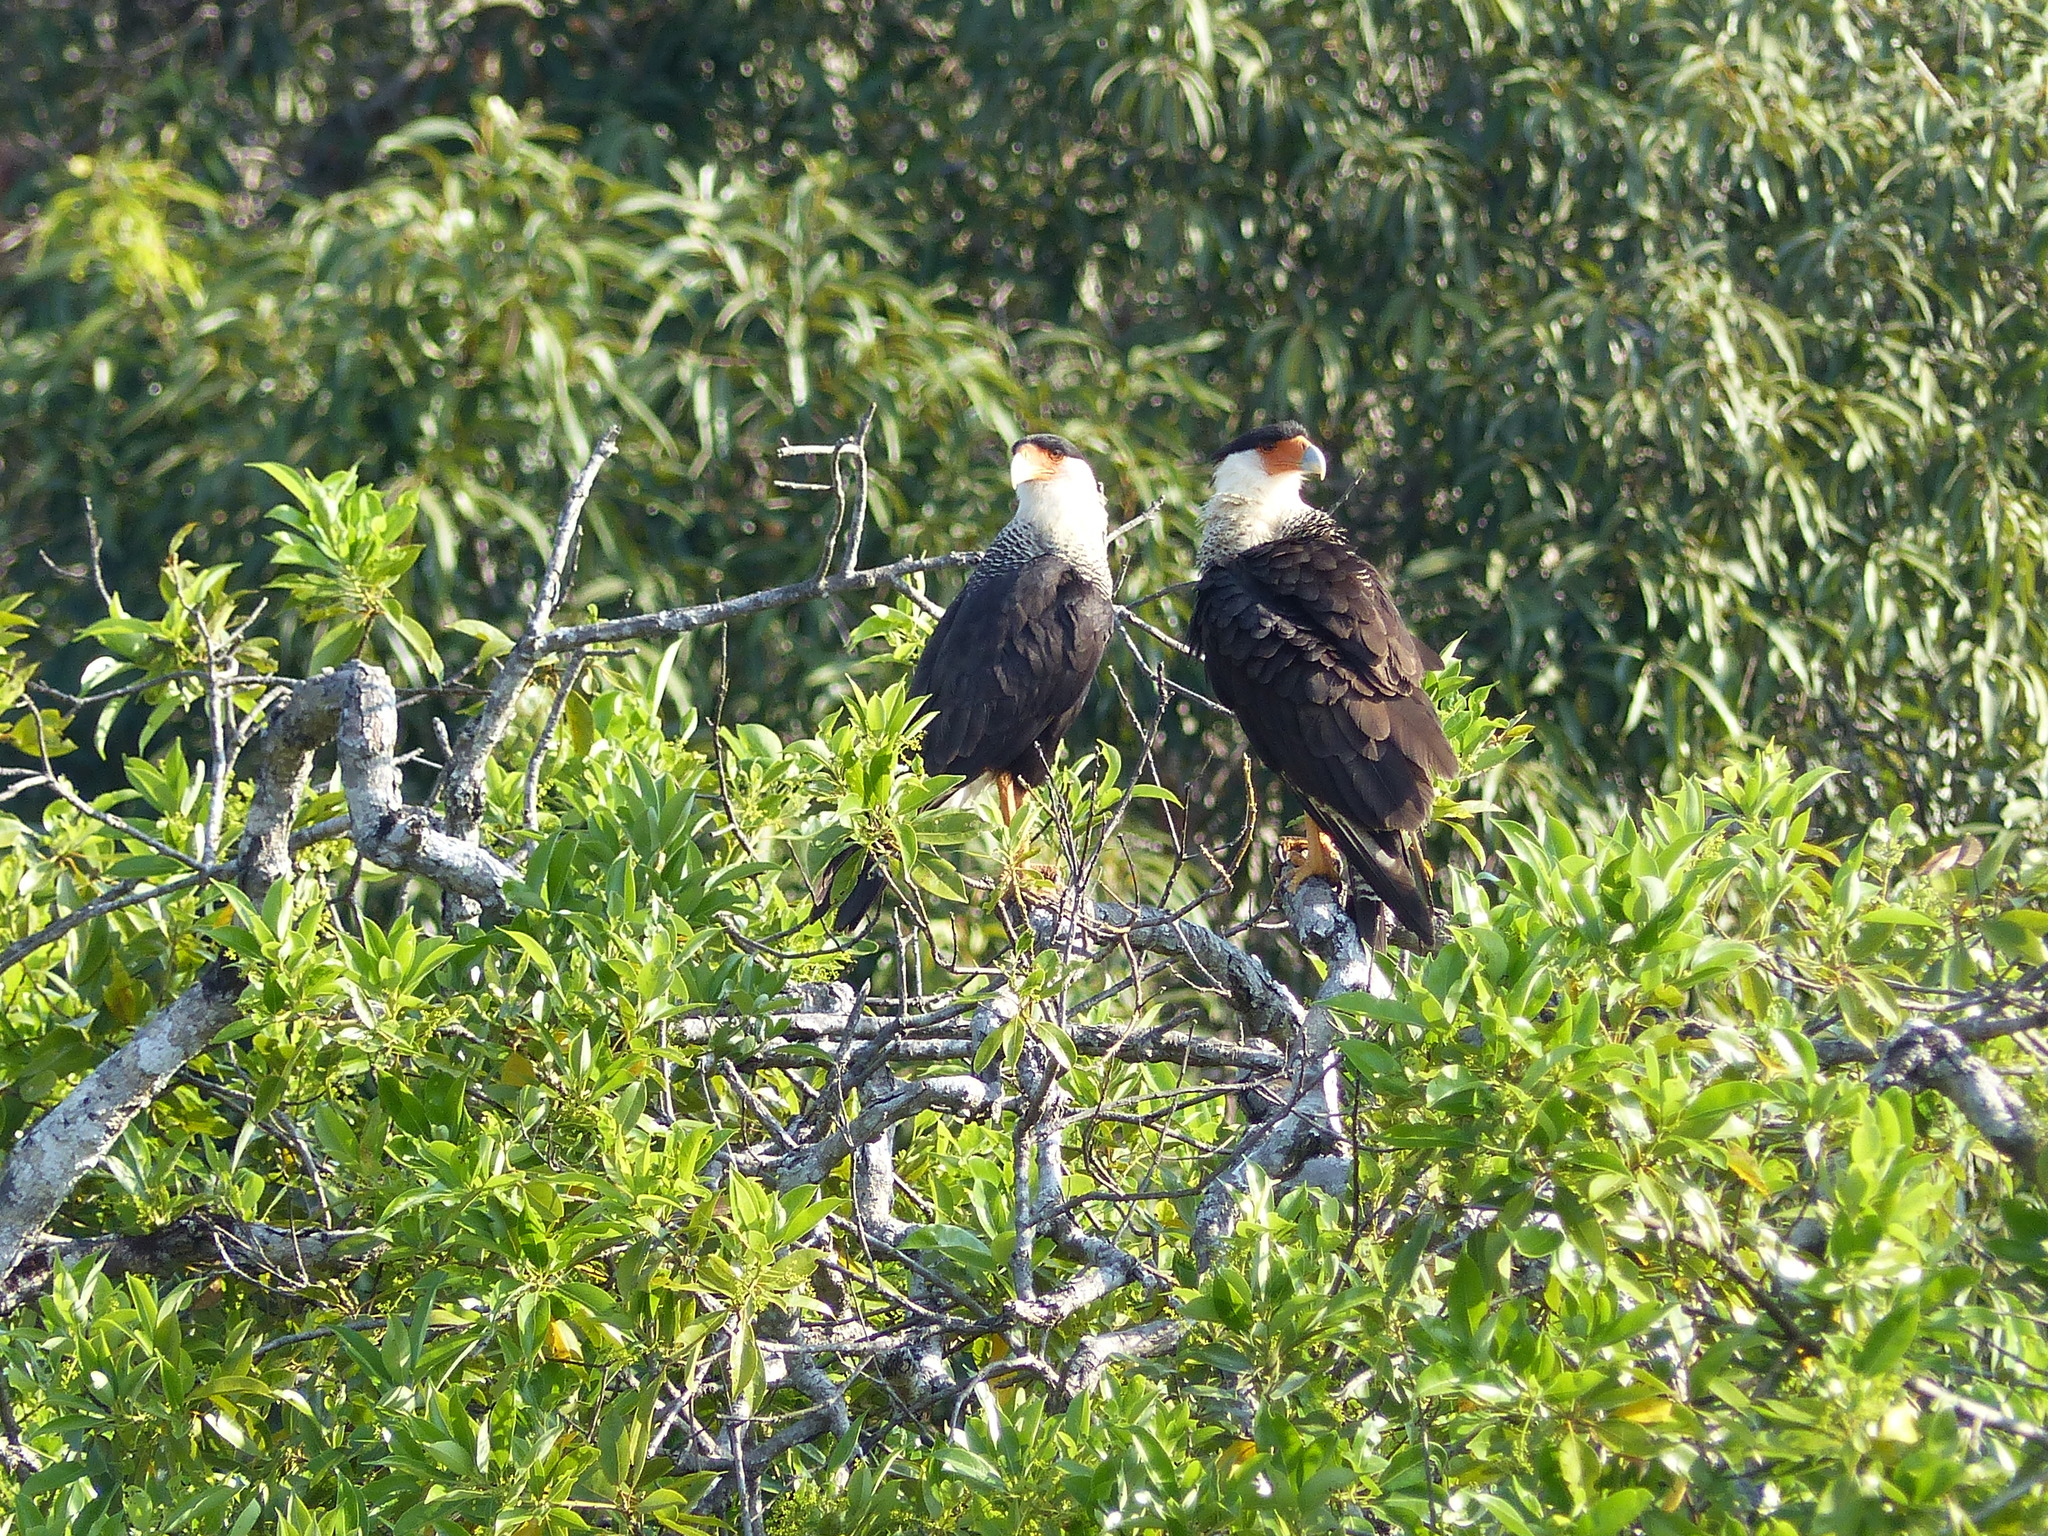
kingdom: Animalia
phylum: Chordata
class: Aves
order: Falconiformes
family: Falconidae
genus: Caracara
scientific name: Caracara plancus
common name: Southern caracara
